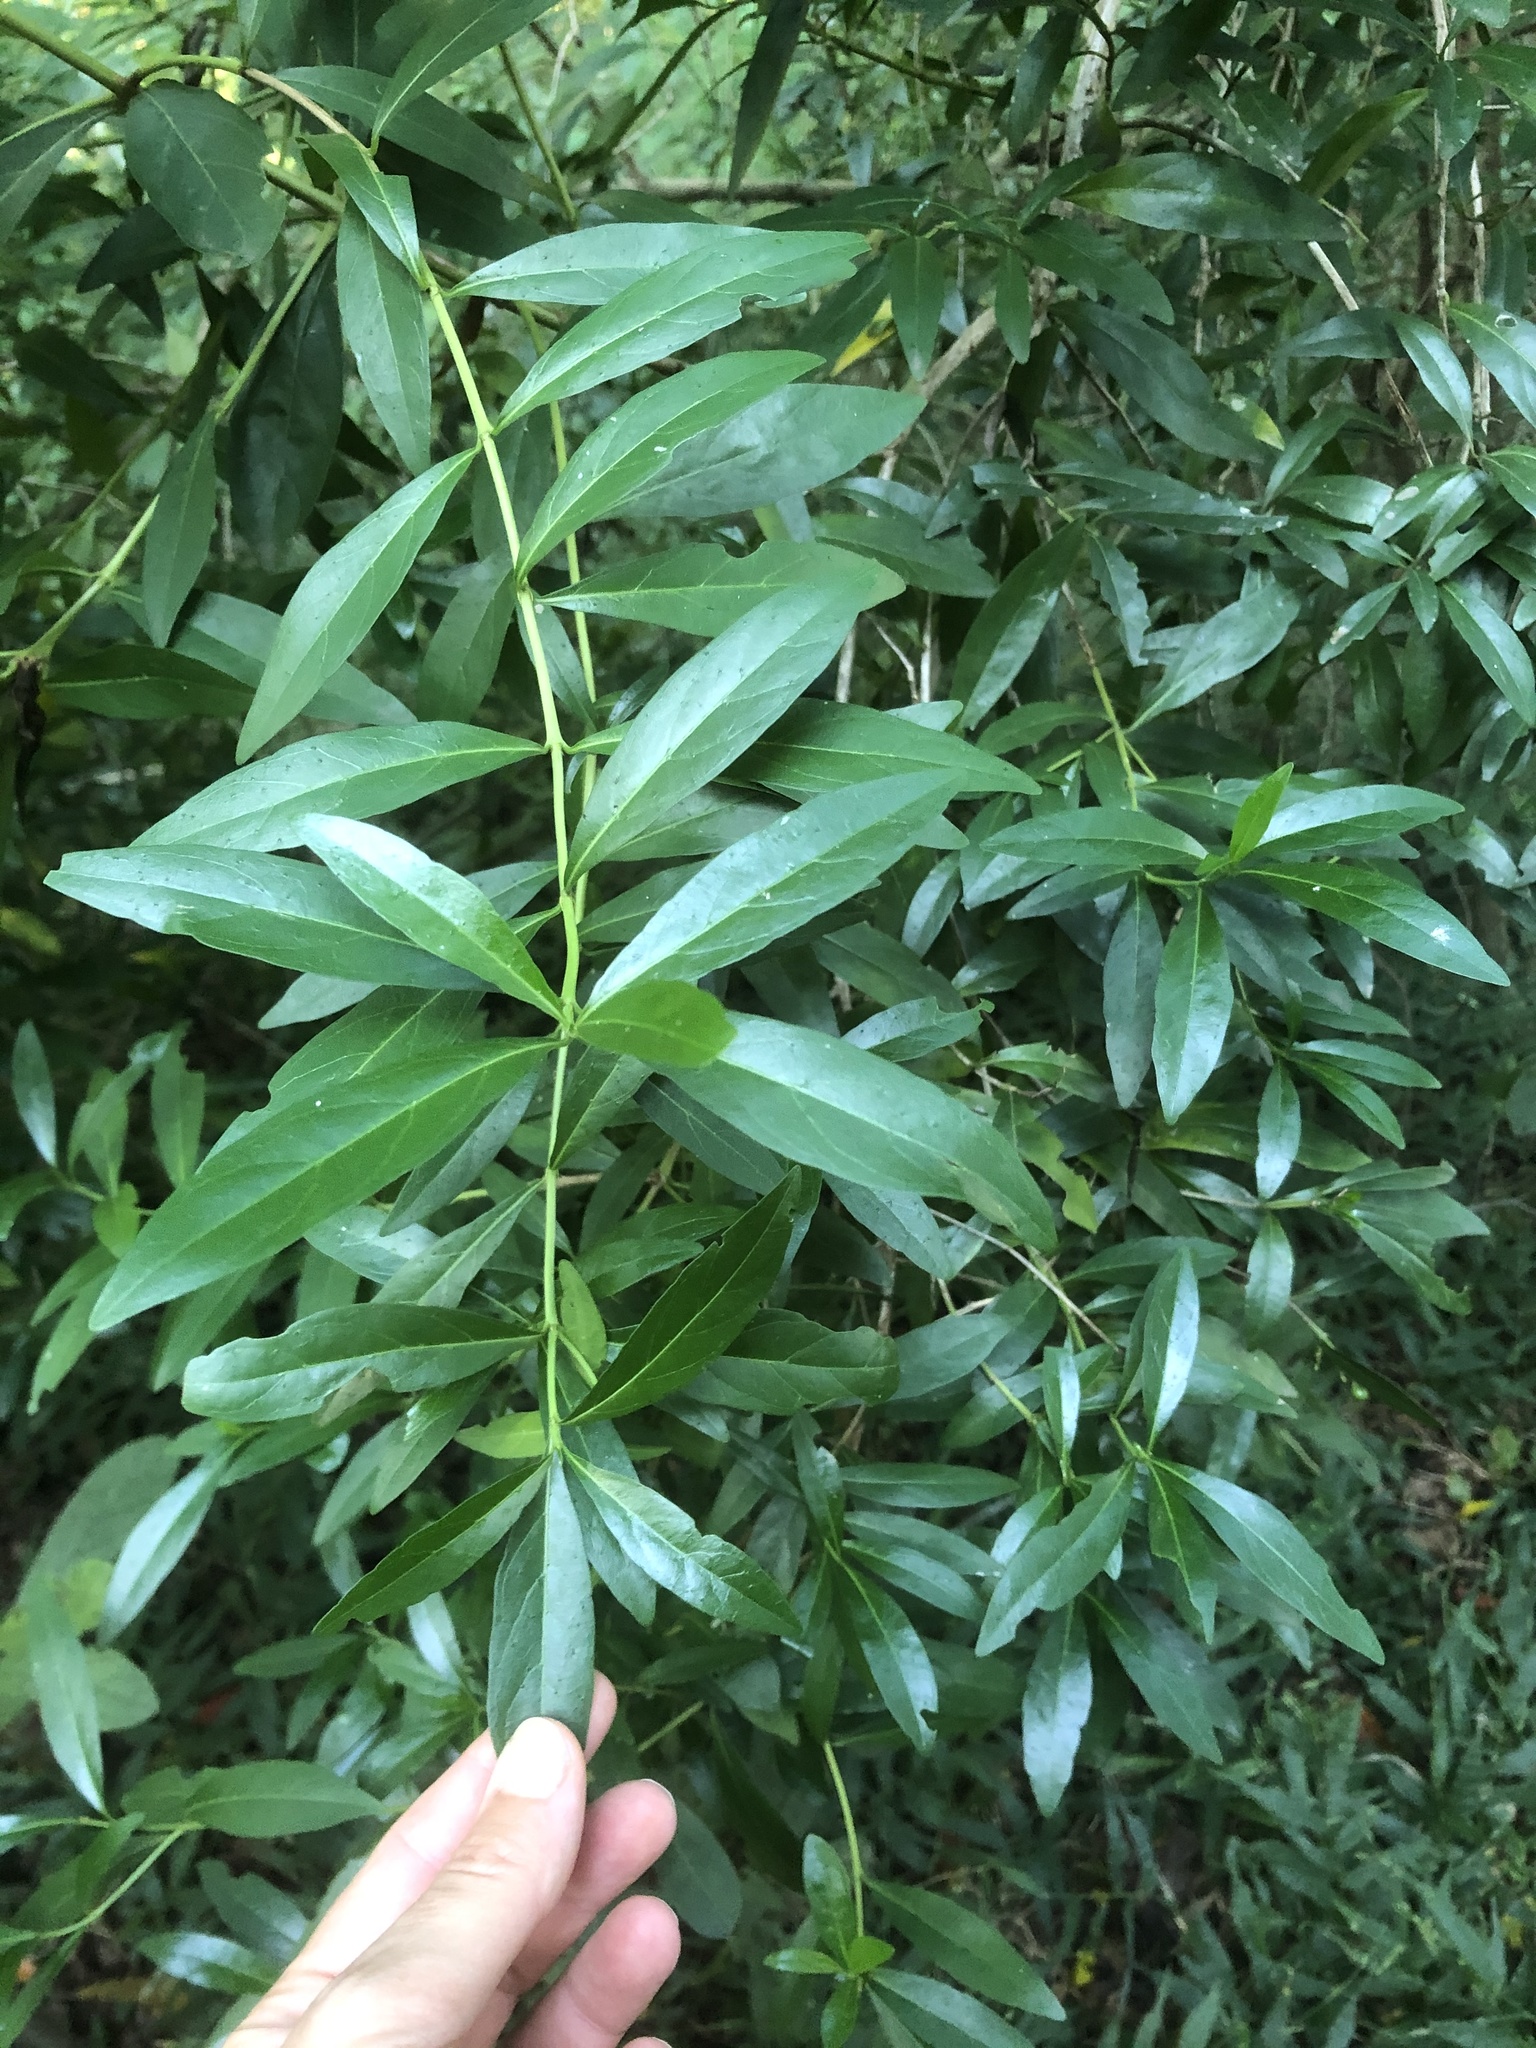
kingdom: Plantae
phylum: Tracheophyta
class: Magnoliopsida
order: Gentianales
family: Rubiaceae
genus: Pavetta
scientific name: Pavetta lanceolata
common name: Weeping brides-bush
